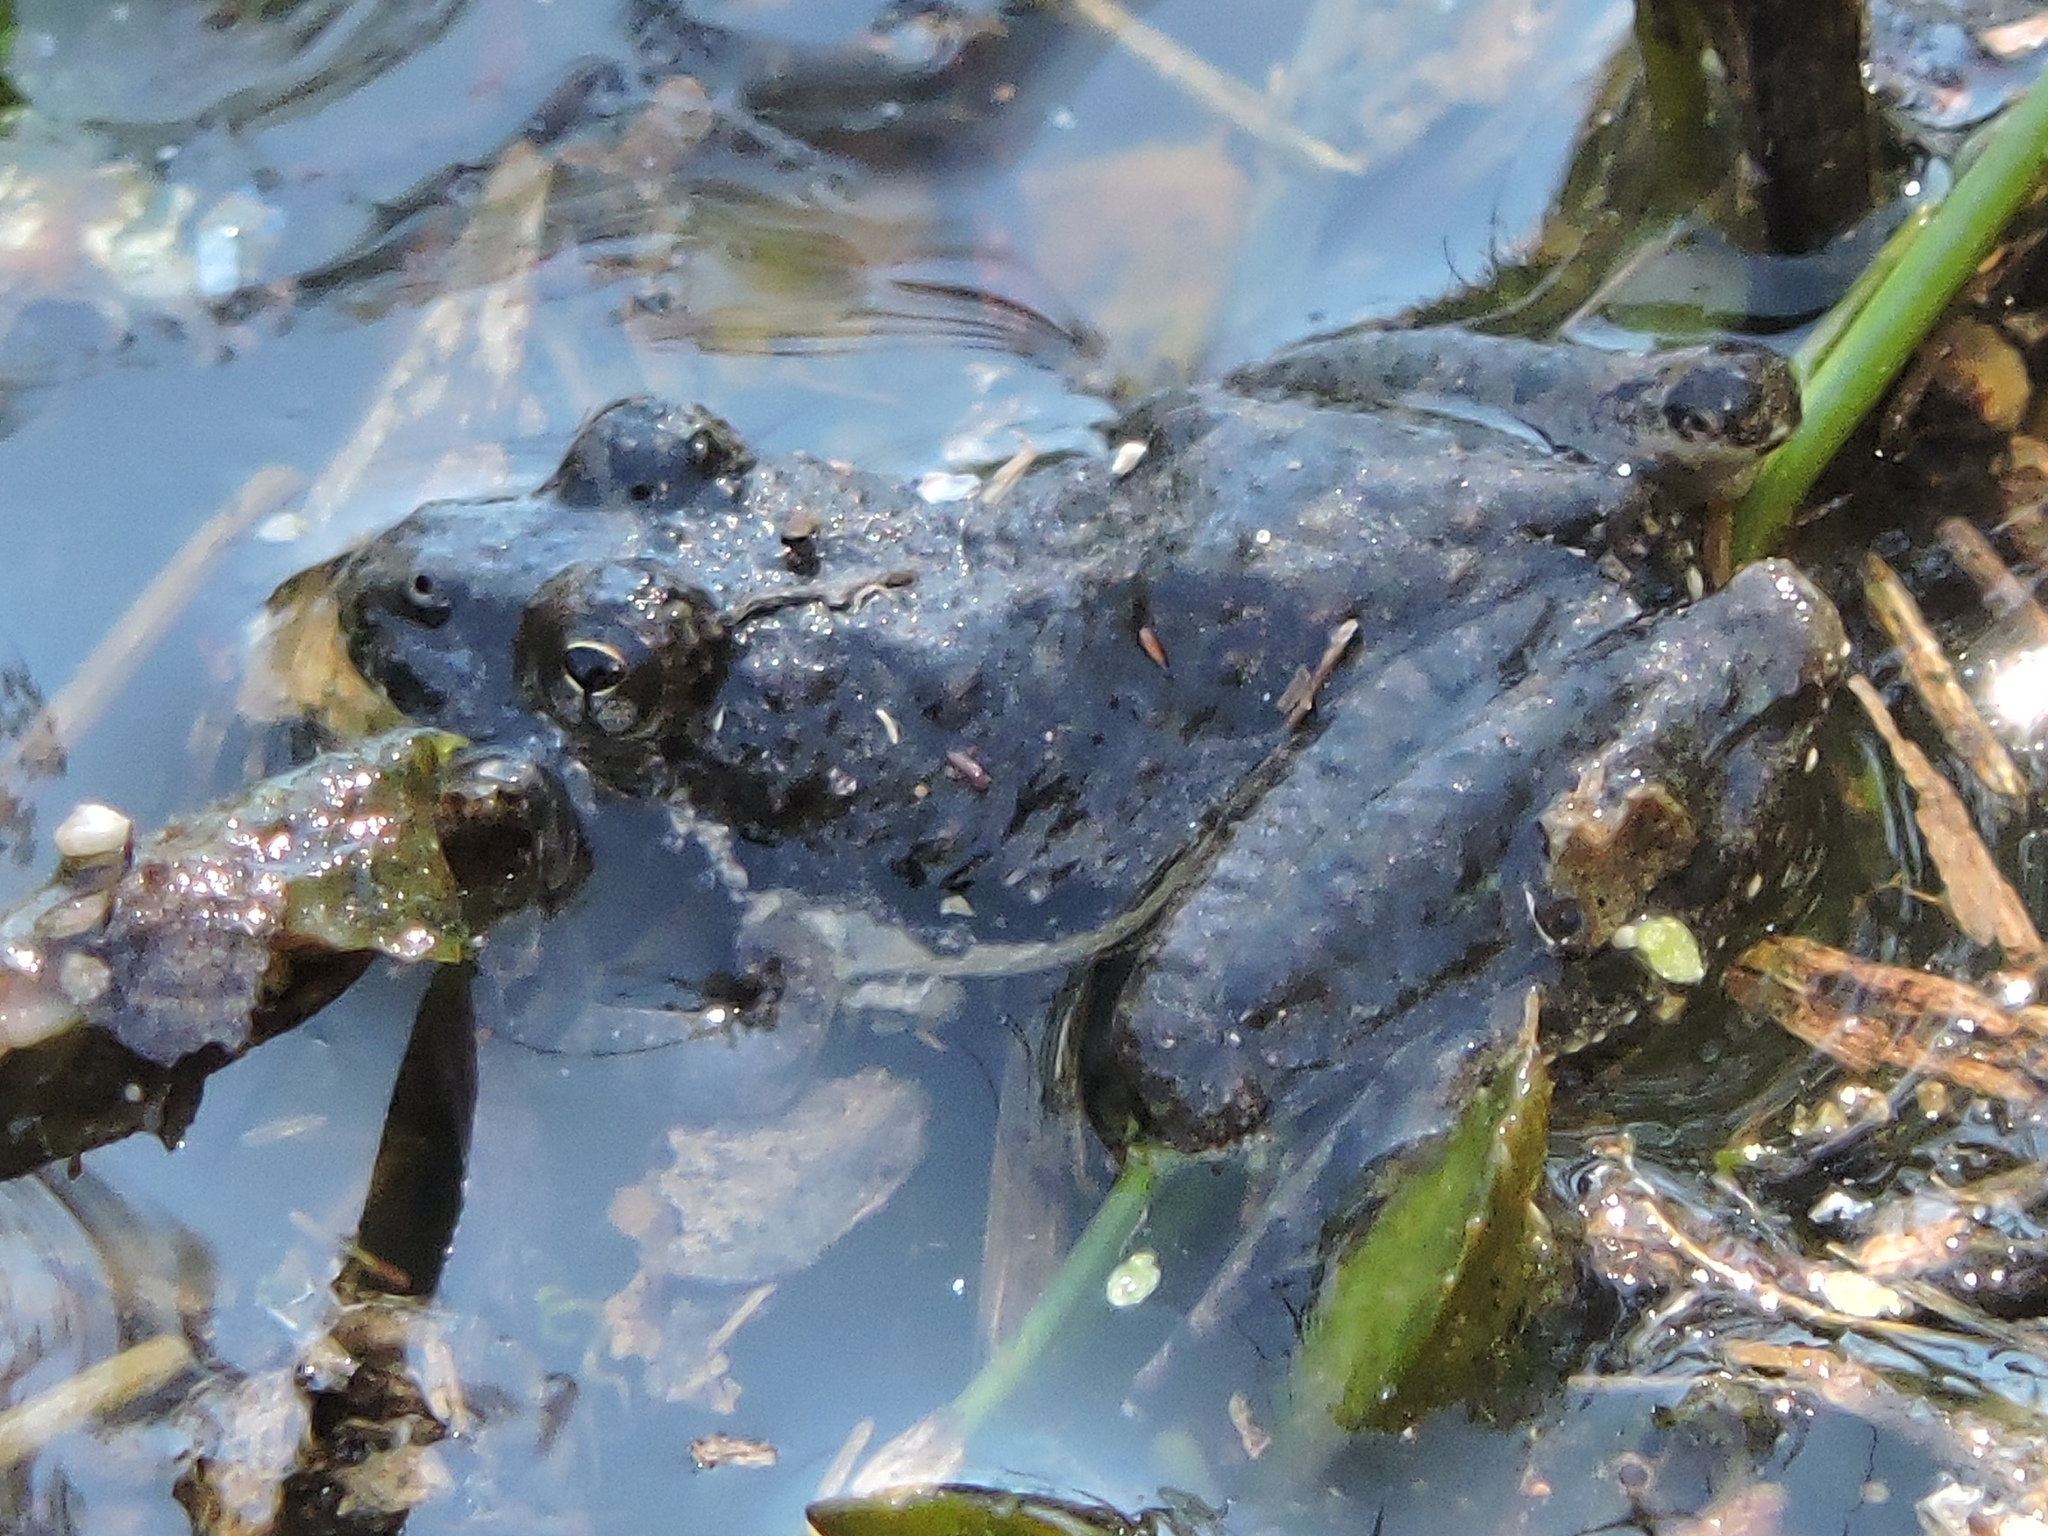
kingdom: Animalia
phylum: Chordata
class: Amphibia
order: Anura
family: Hylidae
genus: Acris
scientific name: Acris blanchardi
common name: Blanchard's cricket frog
